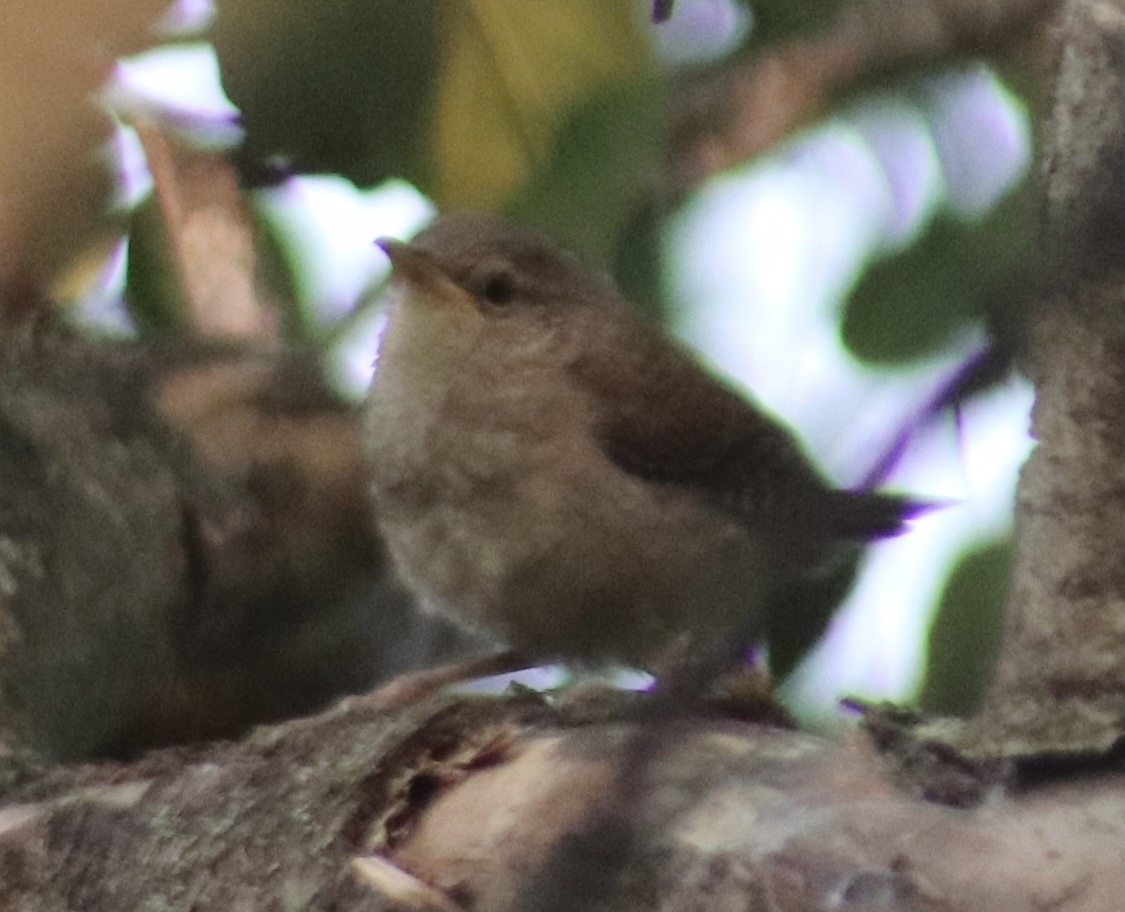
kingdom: Animalia
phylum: Chordata
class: Aves
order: Passeriformes
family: Troglodytidae
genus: Troglodytes
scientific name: Troglodytes aedon
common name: House wren
